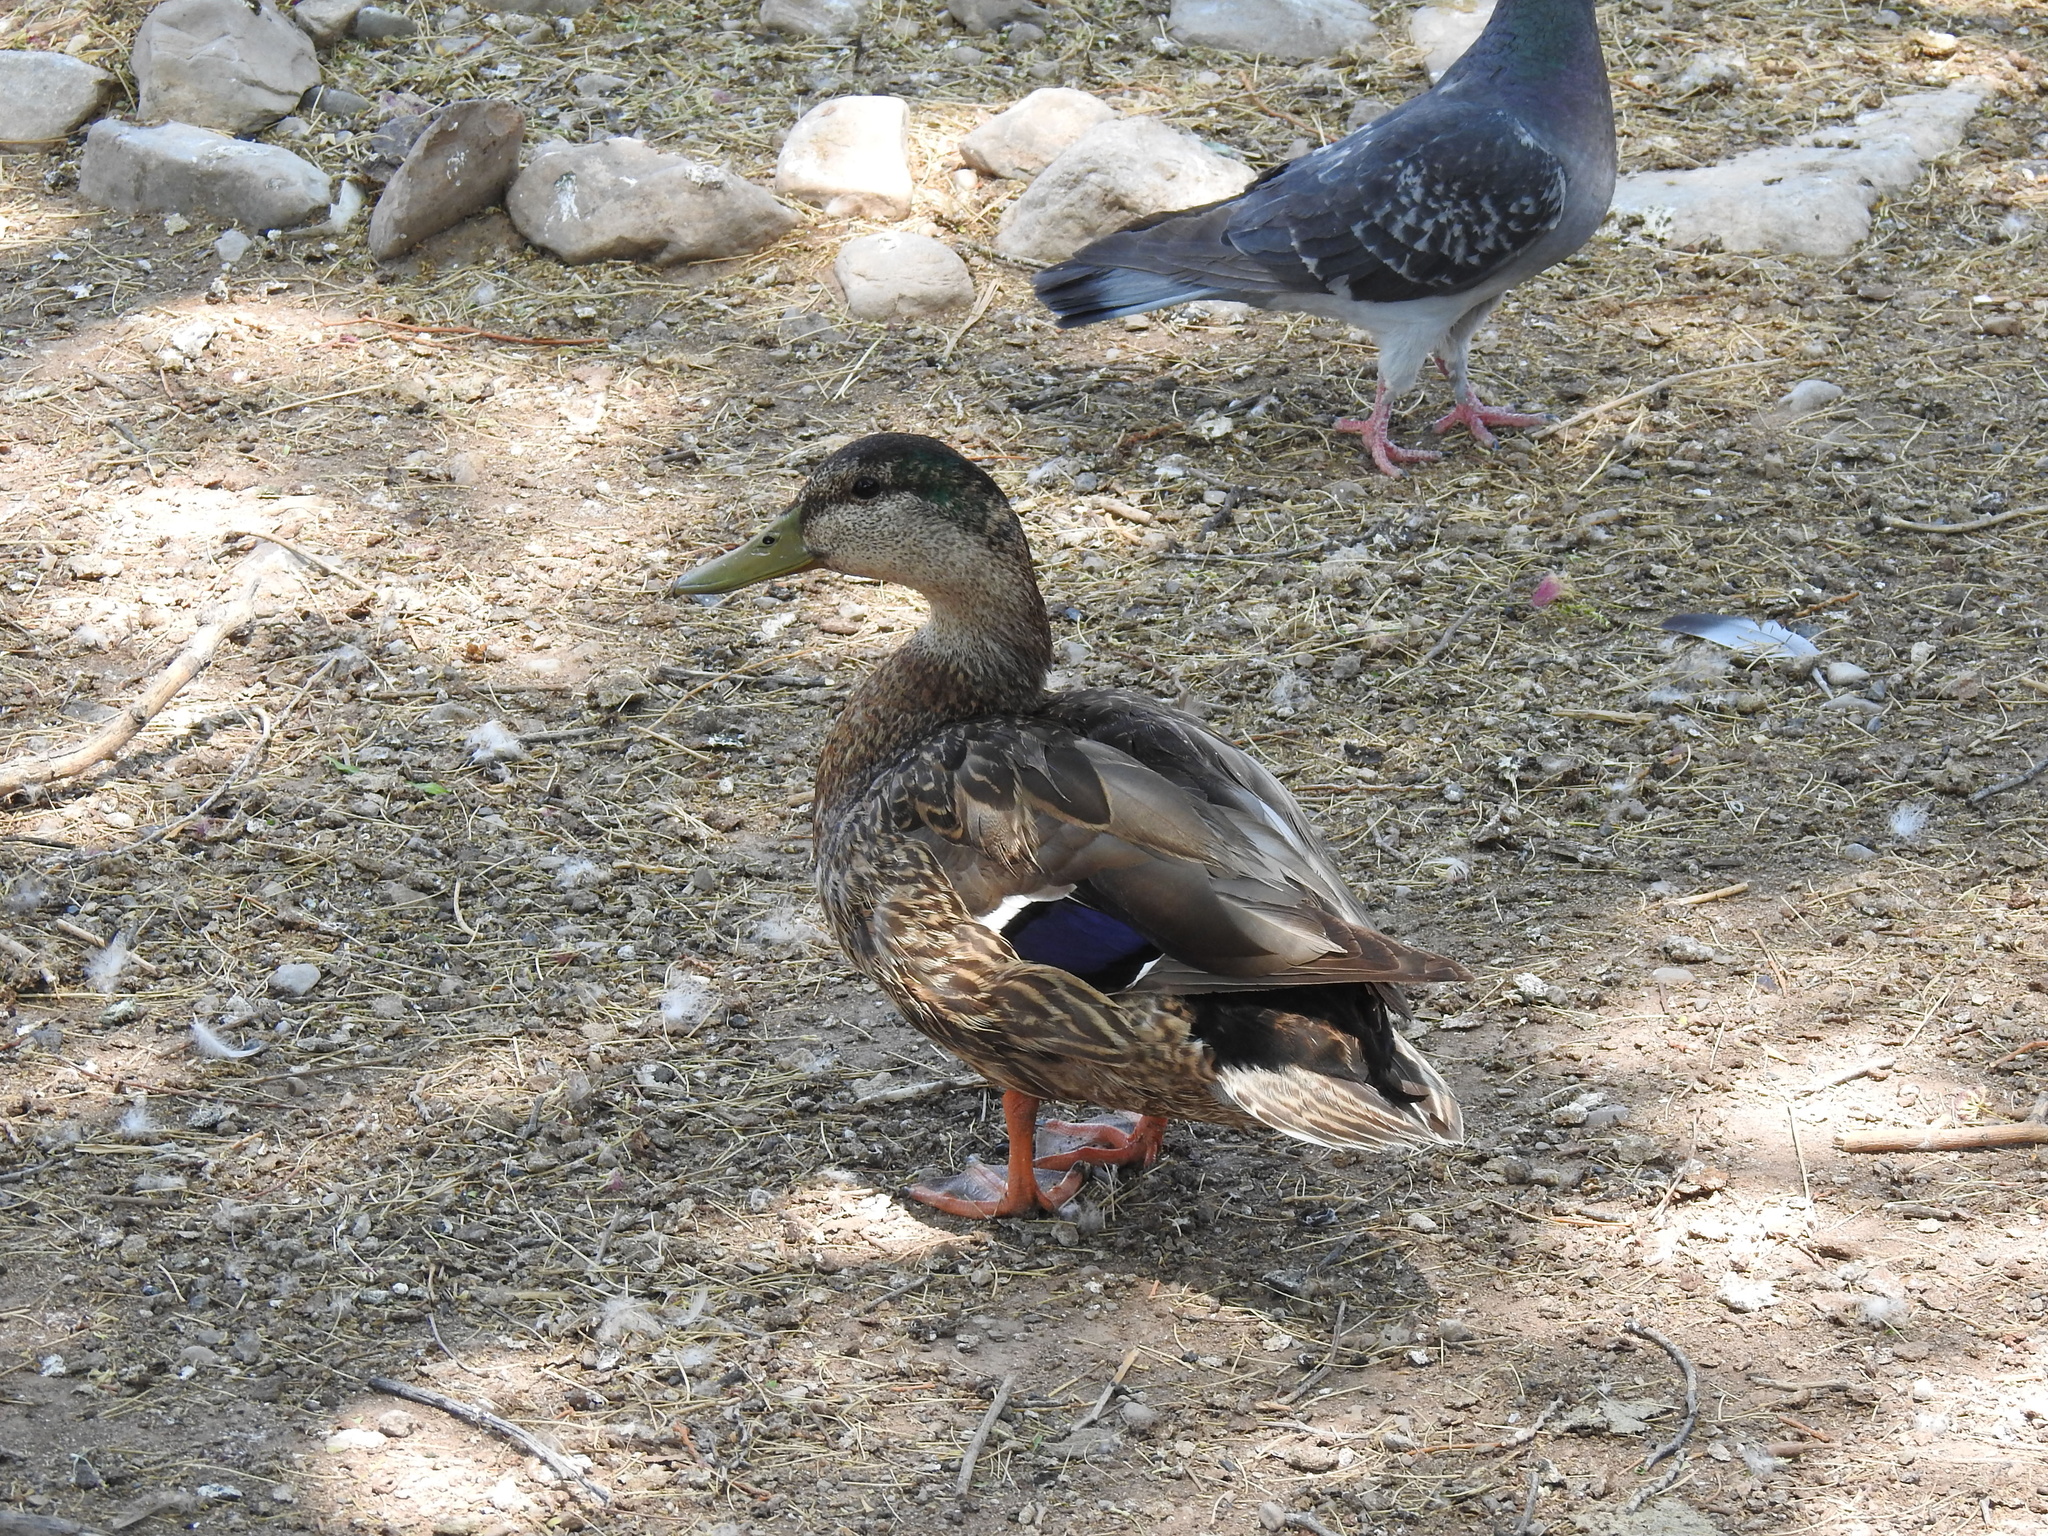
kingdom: Animalia
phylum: Chordata
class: Aves
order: Anseriformes
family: Anatidae
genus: Anas
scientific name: Anas platyrhynchos
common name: Mallard
